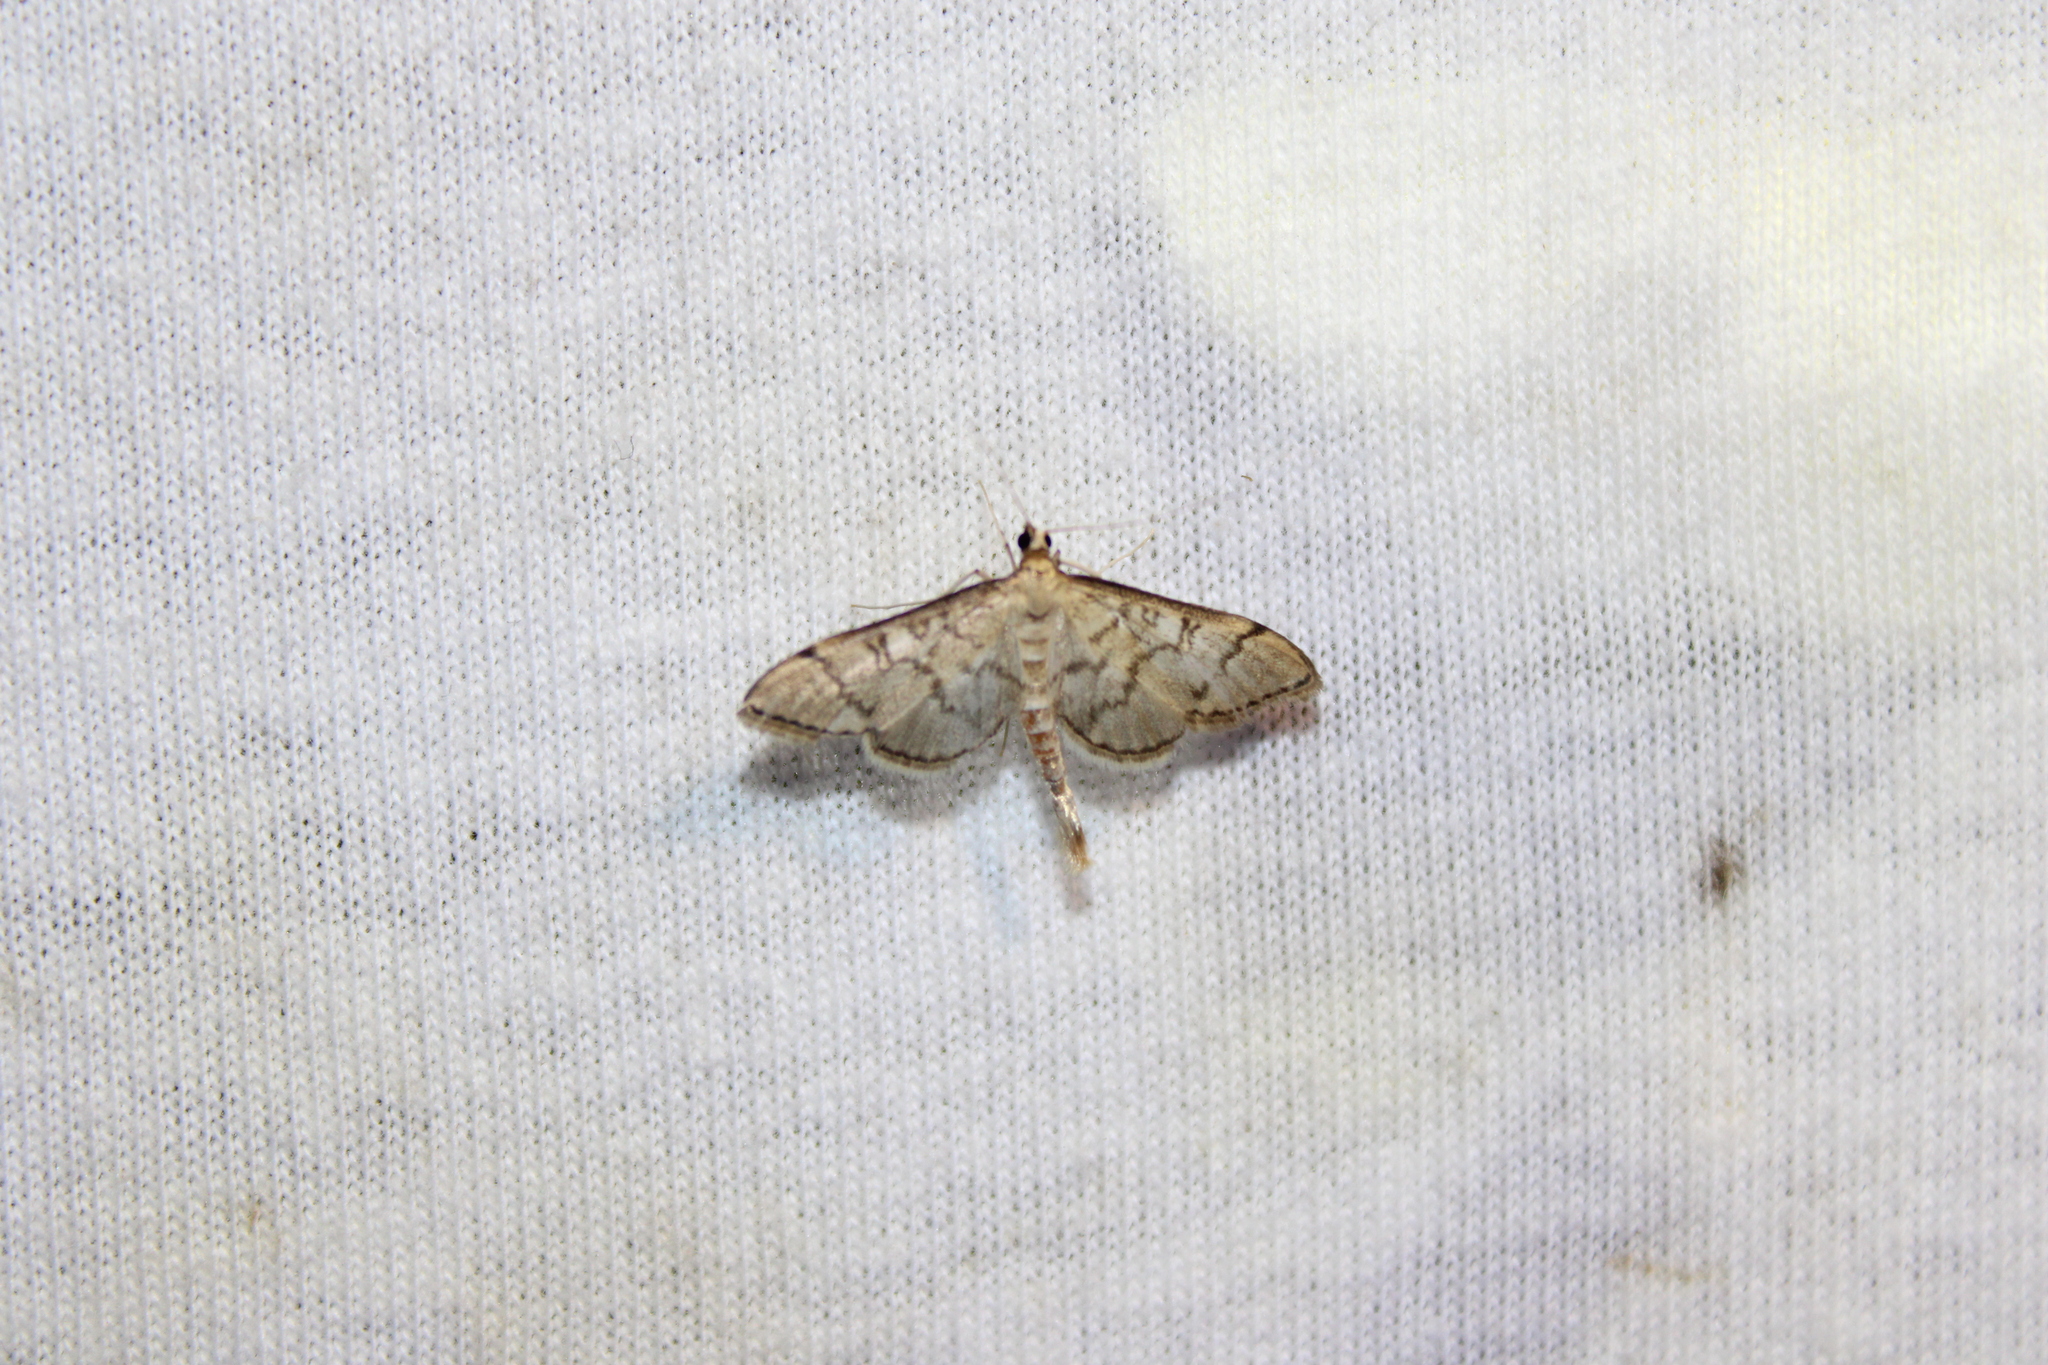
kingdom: Animalia
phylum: Arthropoda
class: Insecta
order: Lepidoptera
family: Crambidae
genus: Lamprosema
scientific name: Lamprosema Blepharomastix ranalis
